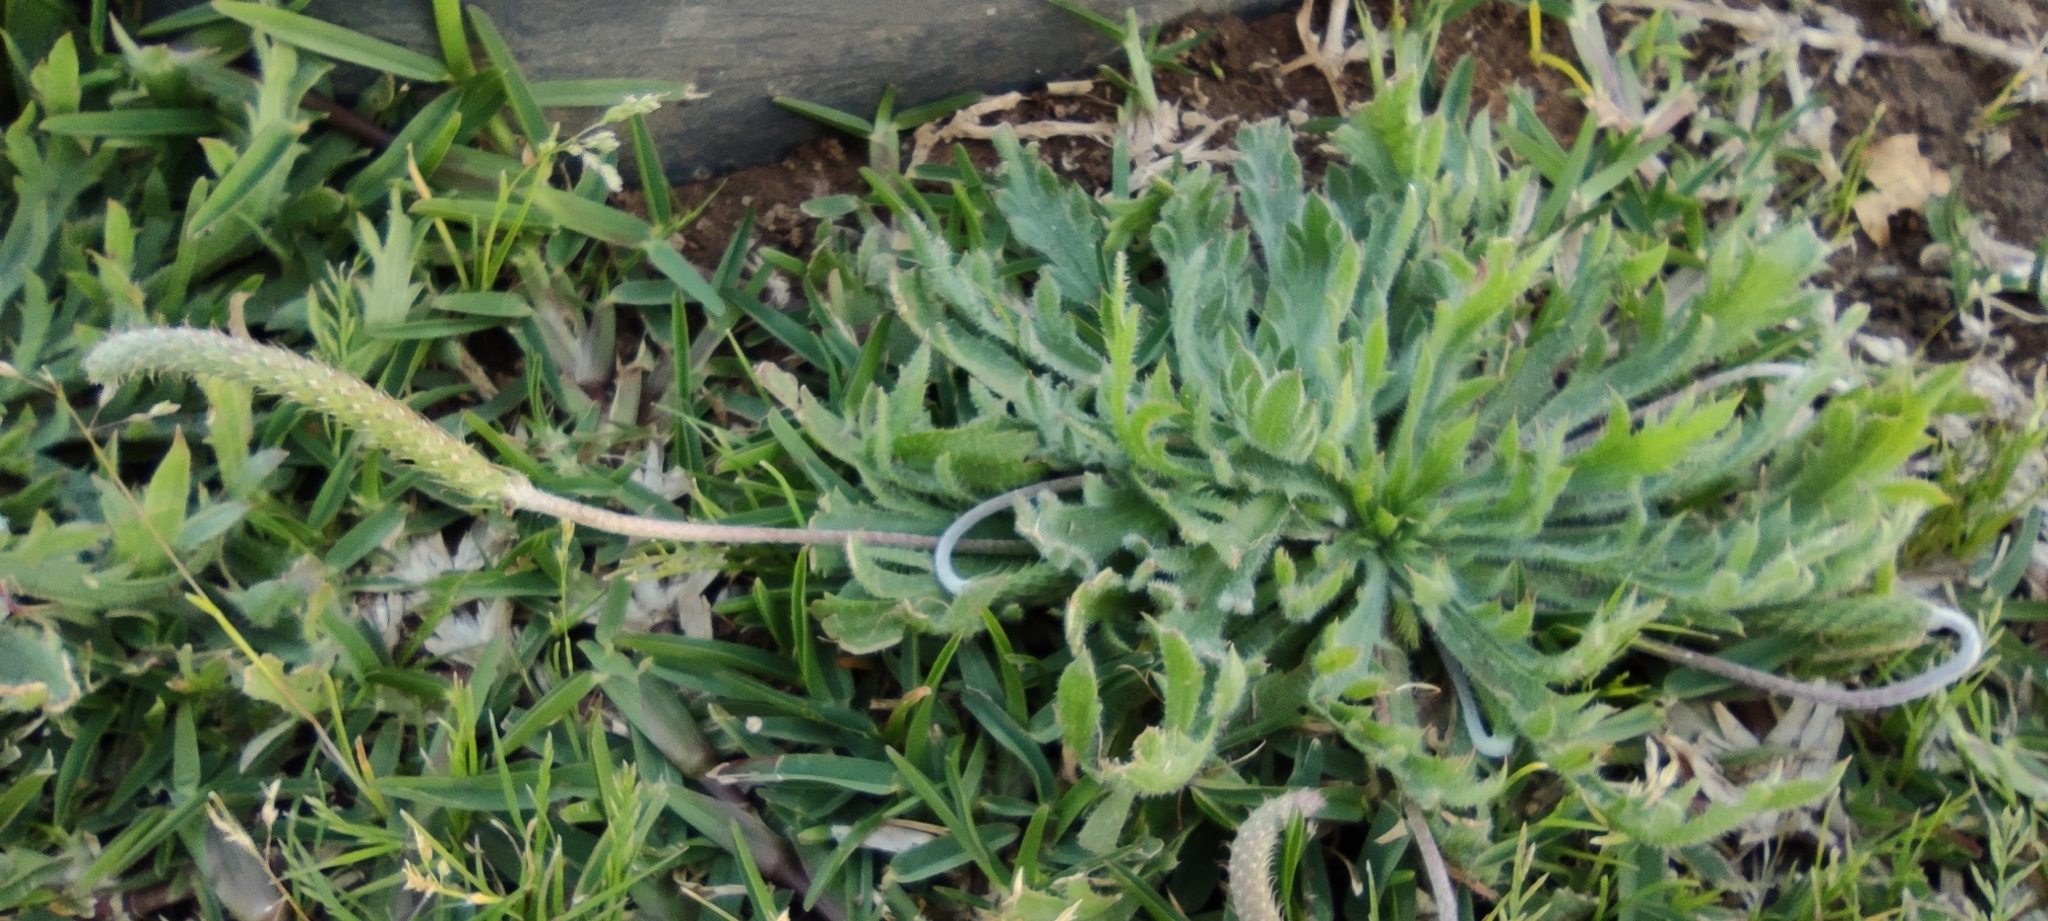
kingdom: Plantae
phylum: Tracheophyta
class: Magnoliopsida
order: Lamiales
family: Plantaginaceae
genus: Plantago
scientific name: Plantago coronopus
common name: Buck's-horn plantain
